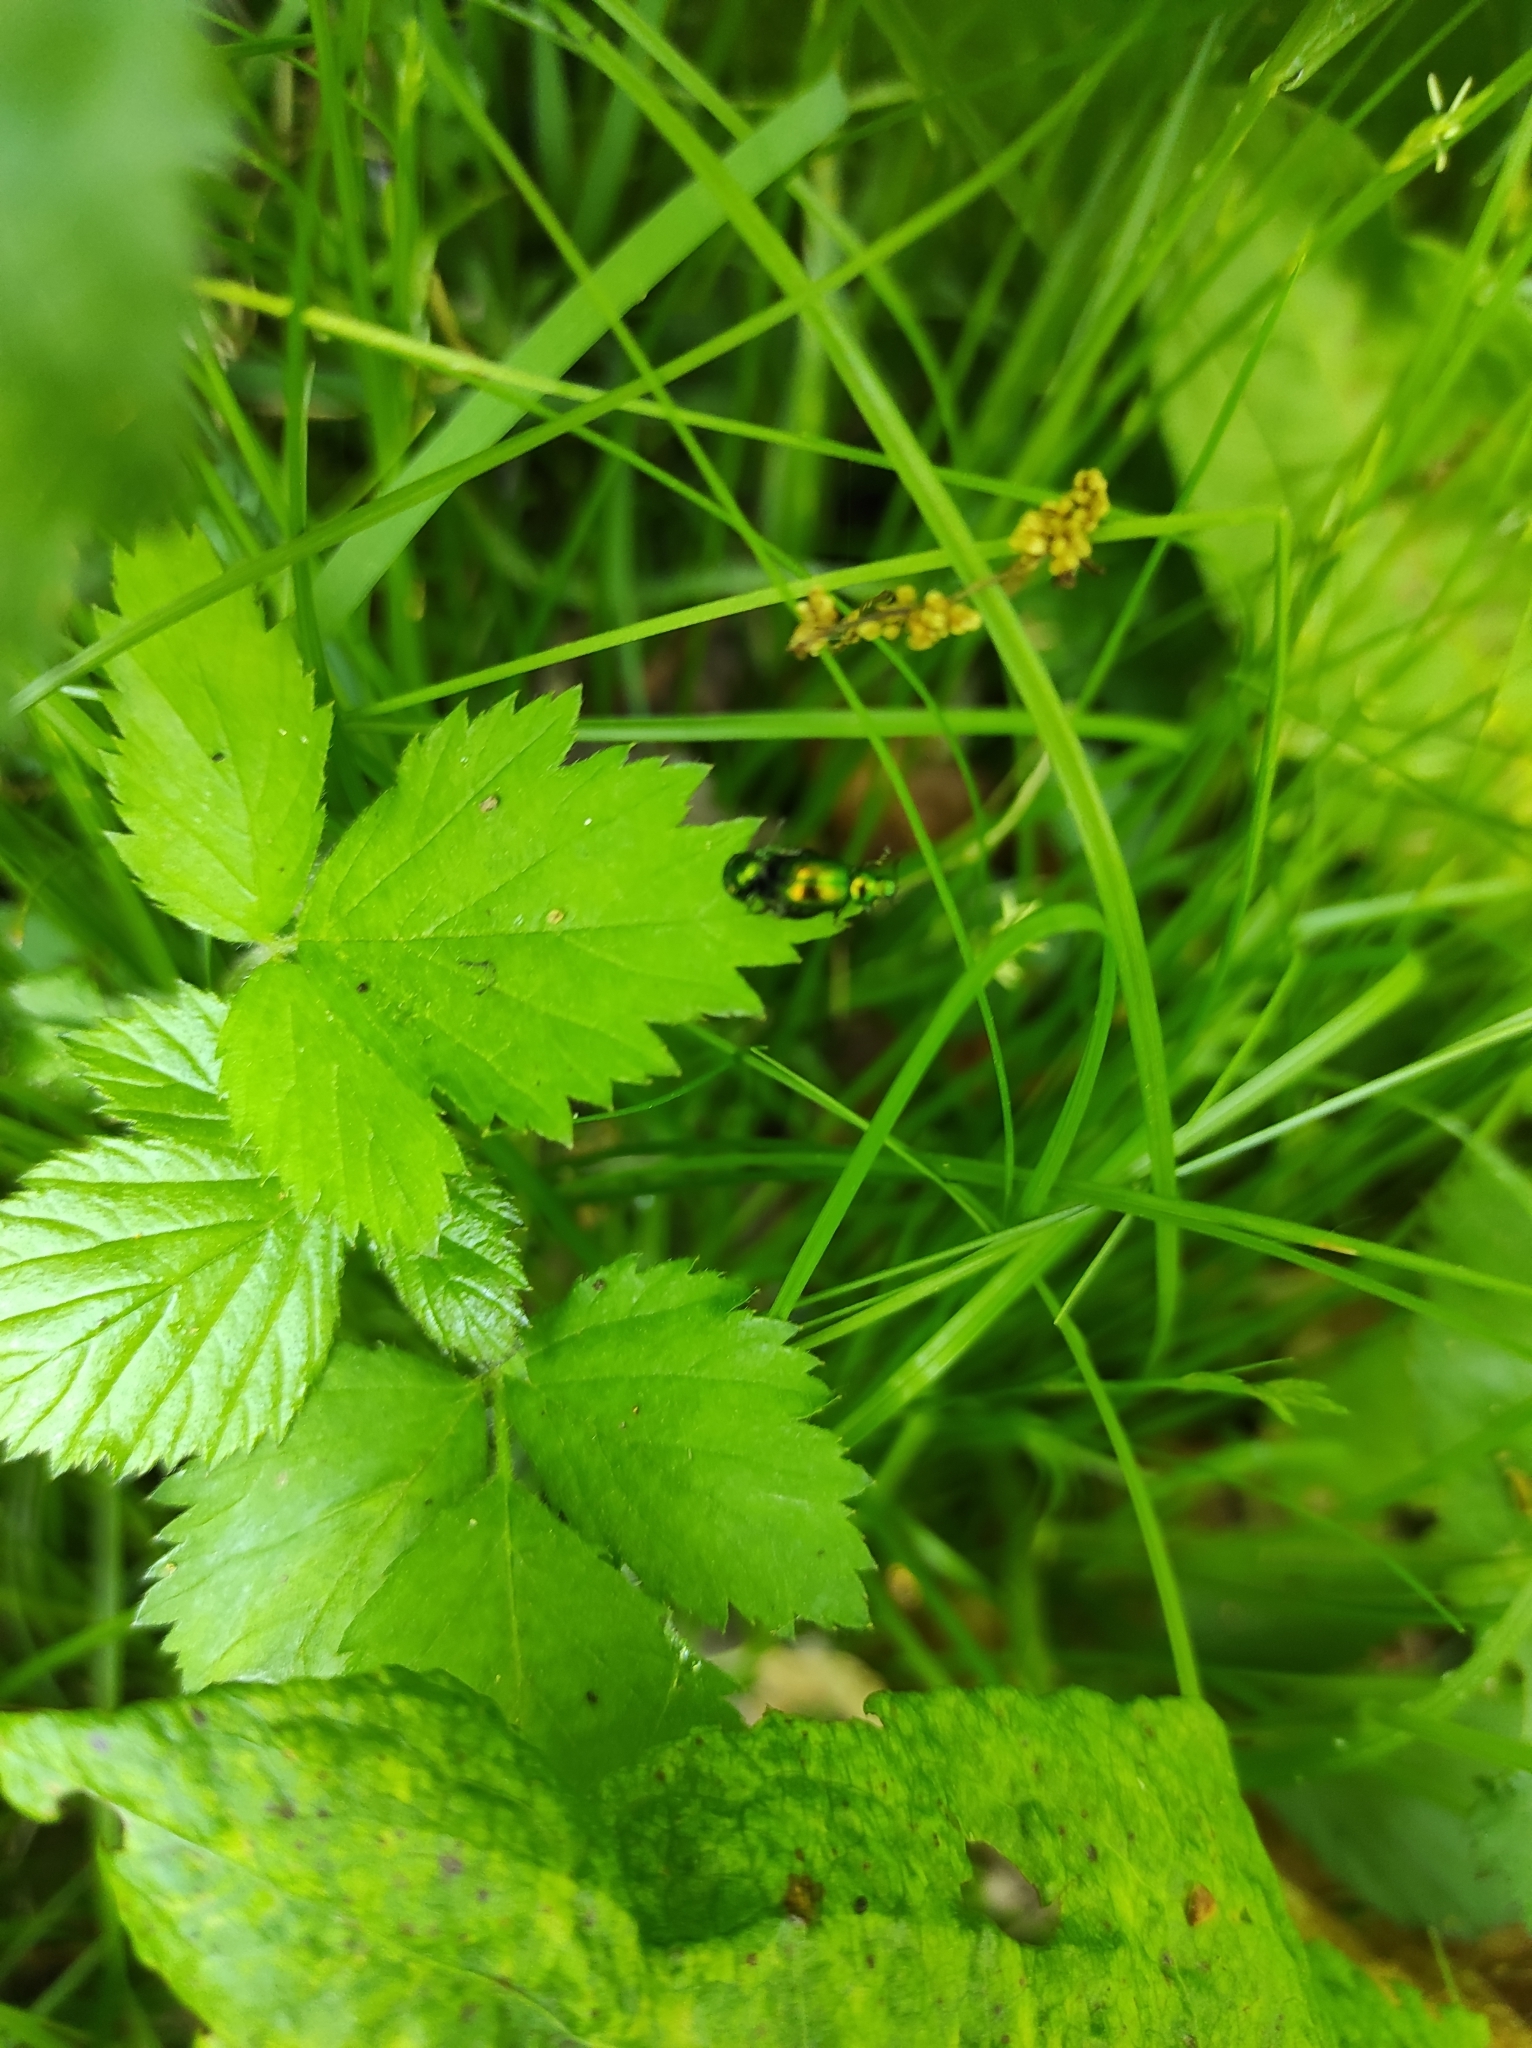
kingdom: Animalia
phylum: Arthropoda
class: Insecta
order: Coleoptera
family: Chrysomelidae
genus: Gastrophysa
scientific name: Gastrophysa viridula
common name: Green dock beetle
